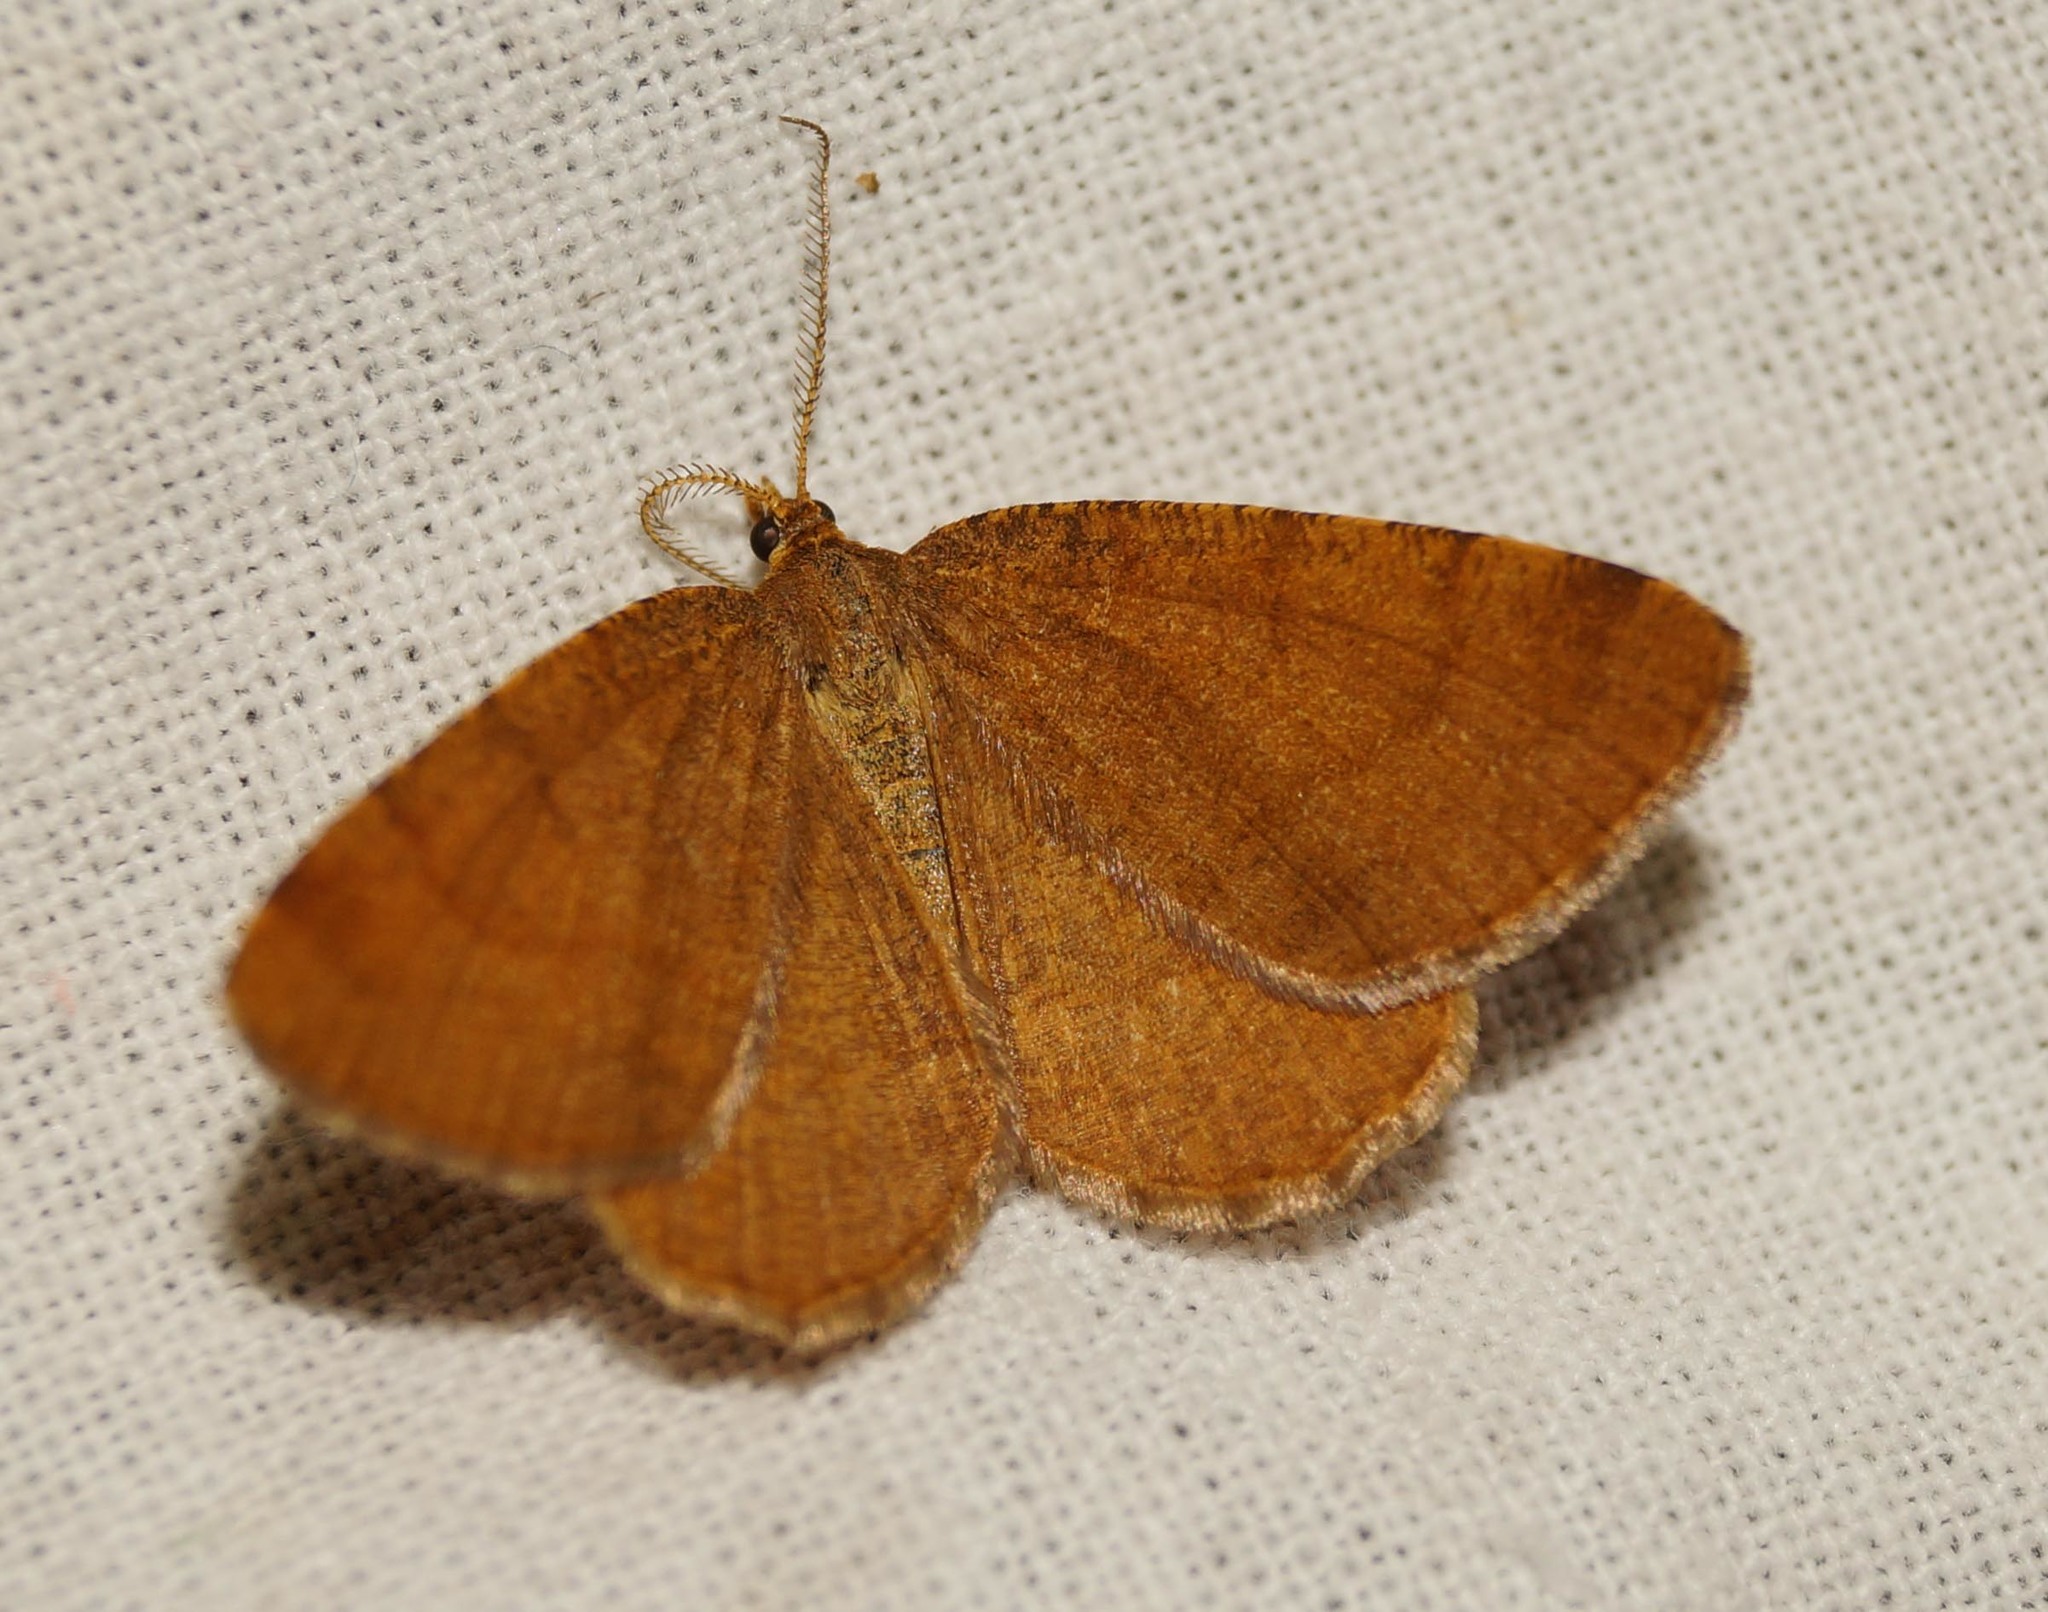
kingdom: Animalia
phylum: Arthropoda
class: Insecta
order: Lepidoptera
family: Geometridae
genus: Macaria
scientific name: Macaria brunneata
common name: Rannoch looper
